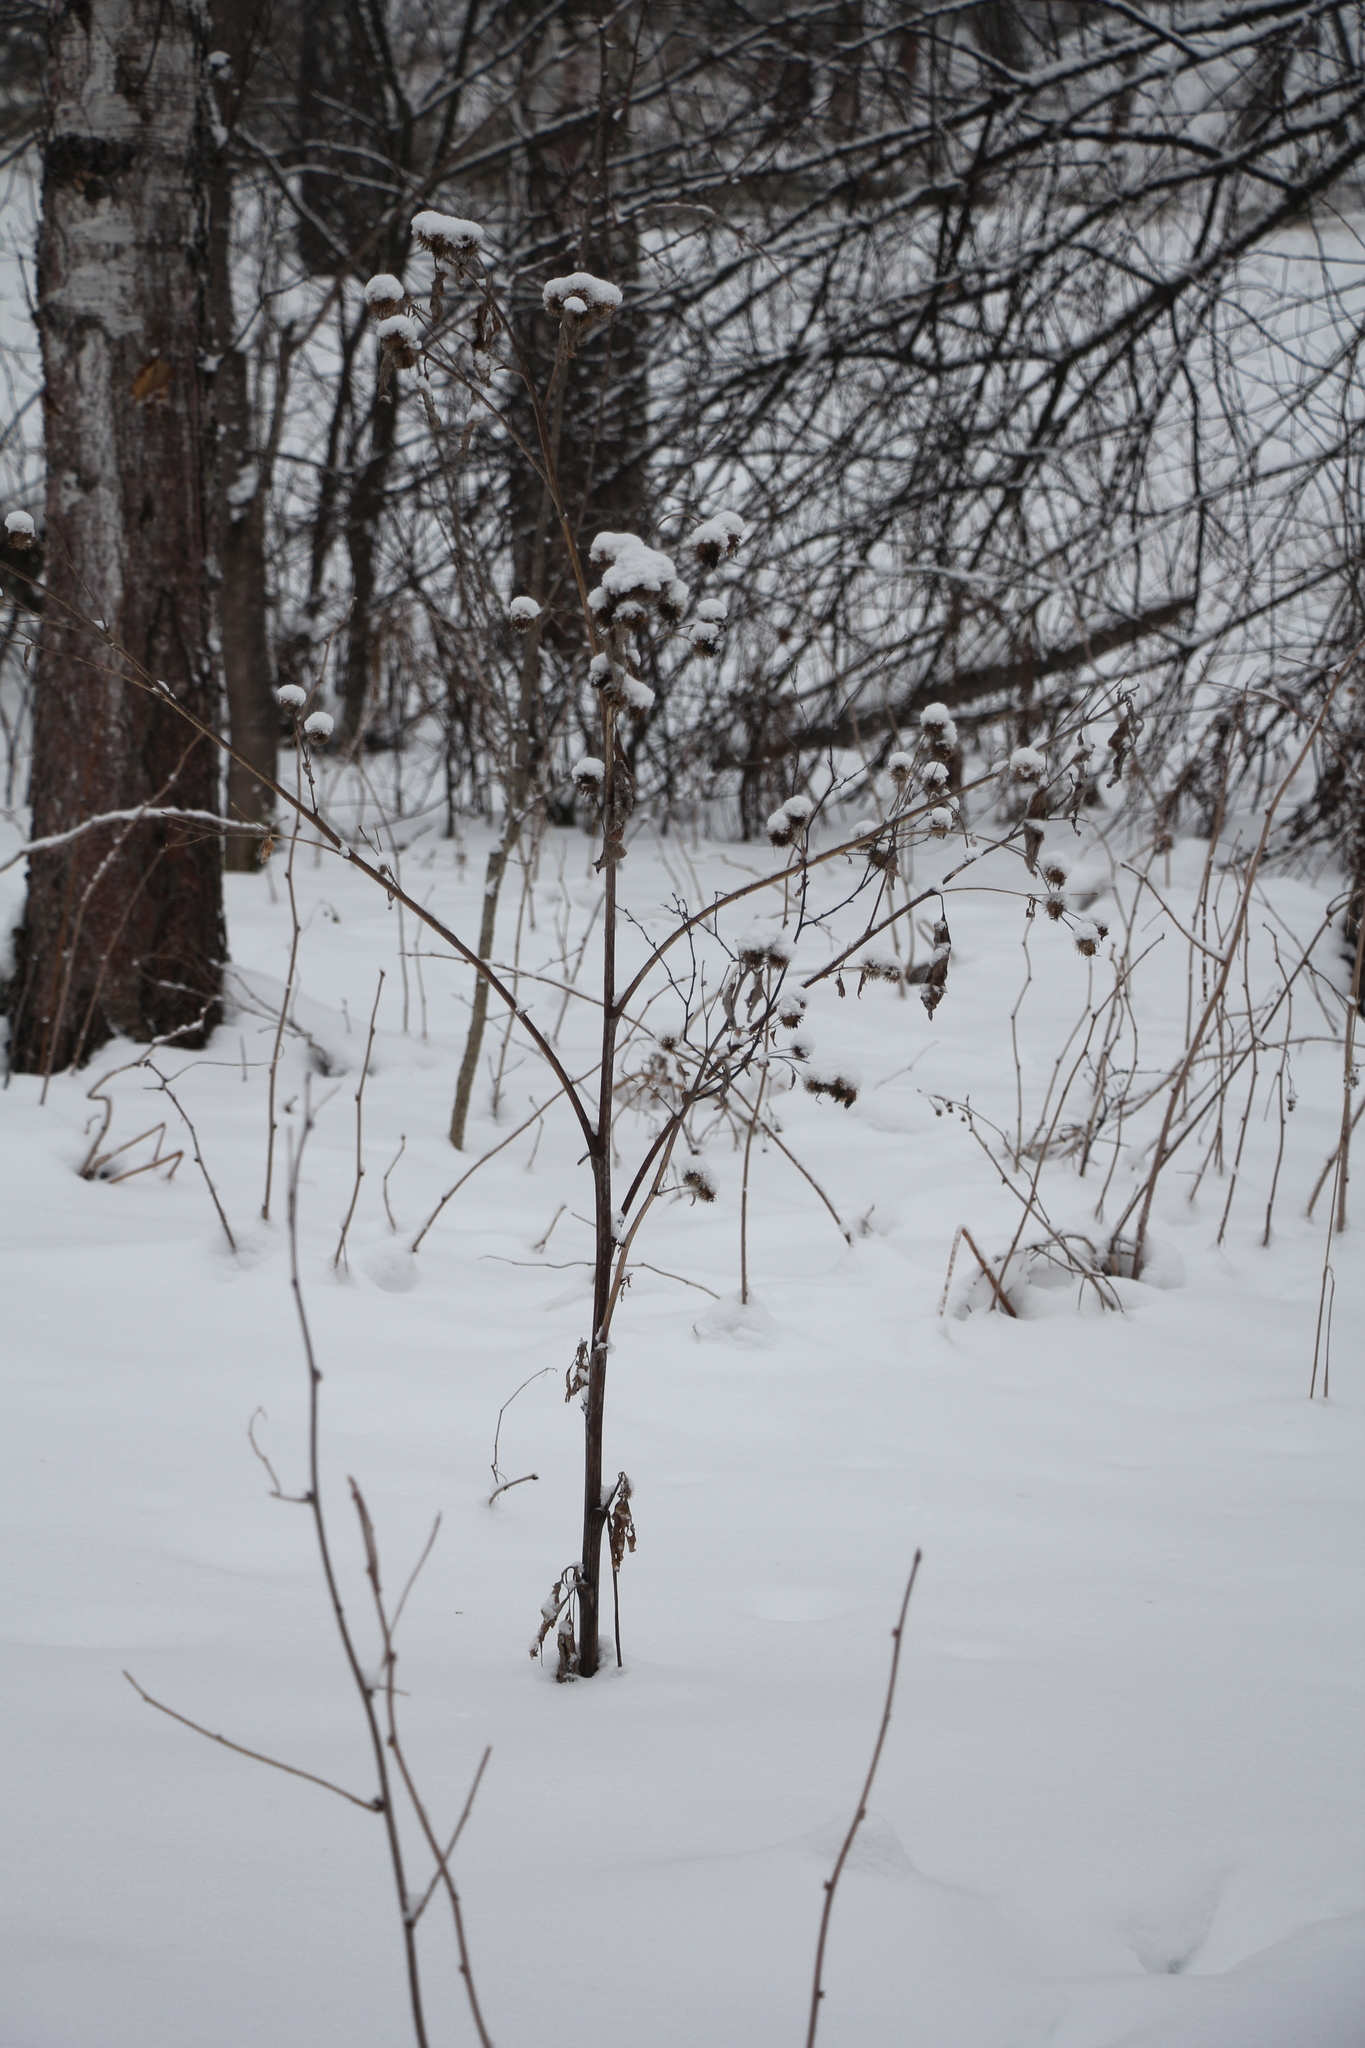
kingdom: Plantae
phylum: Tracheophyta
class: Magnoliopsida
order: Asterales
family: Asteraceae
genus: Arctium
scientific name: Arctium tomentosum
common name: Woolly burdock
